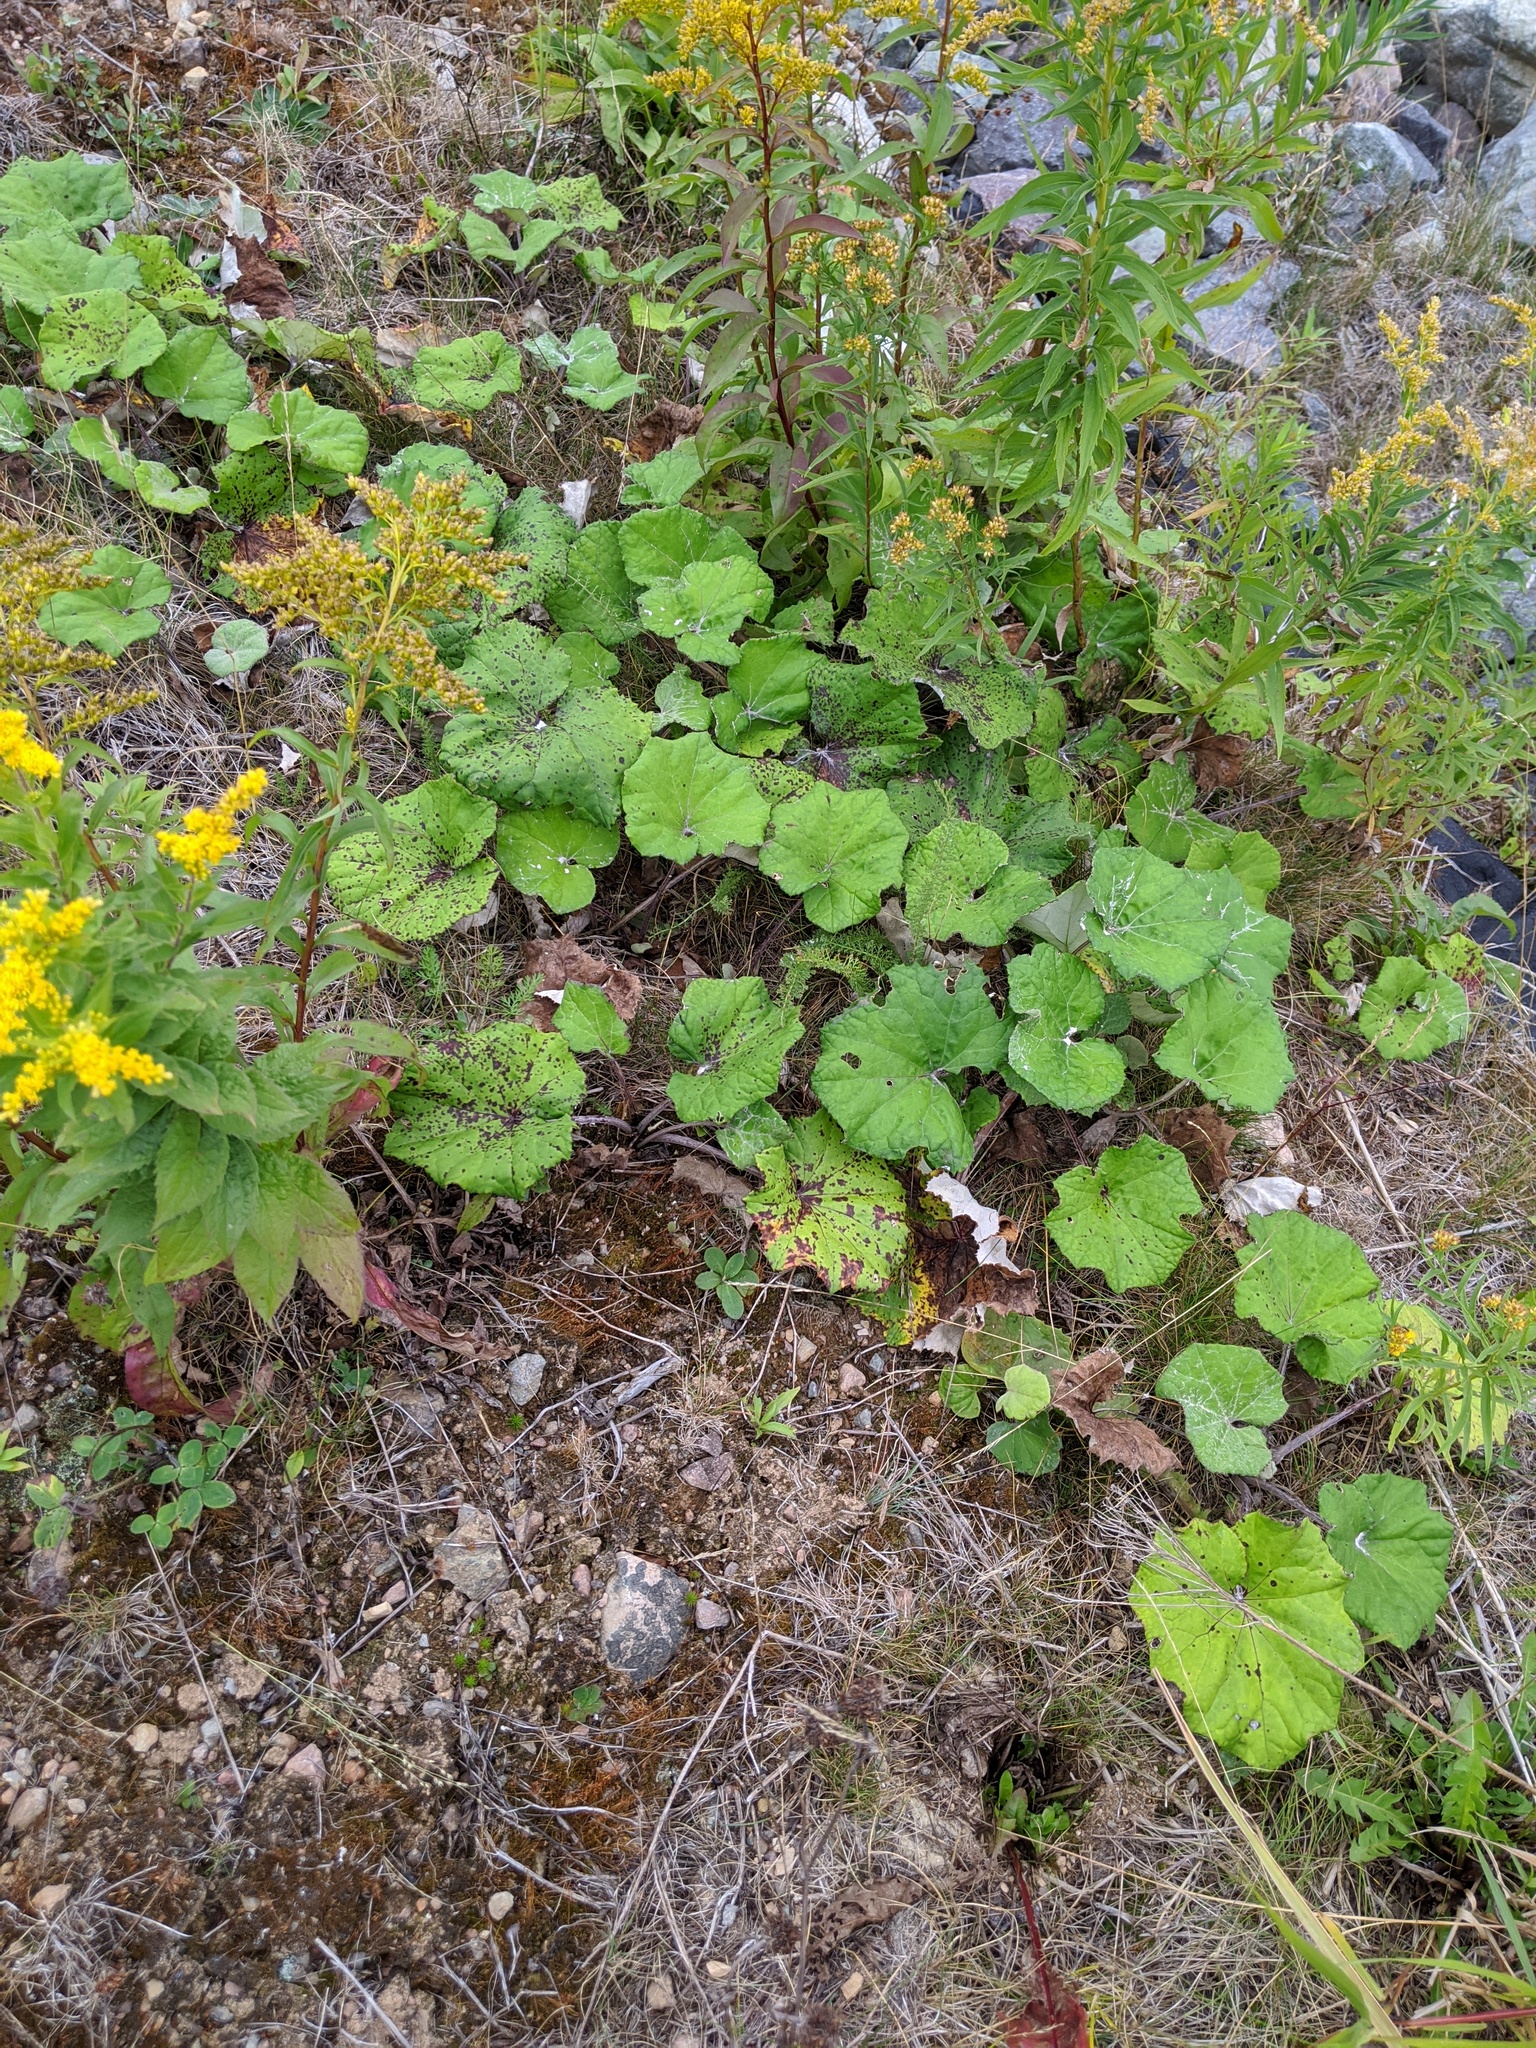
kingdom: Plantae
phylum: Tracheophyta
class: Magnoliopsida
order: Asterales
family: Asteraceae
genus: Tussilago
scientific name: Tussilago farfara
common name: Coltsfoot
